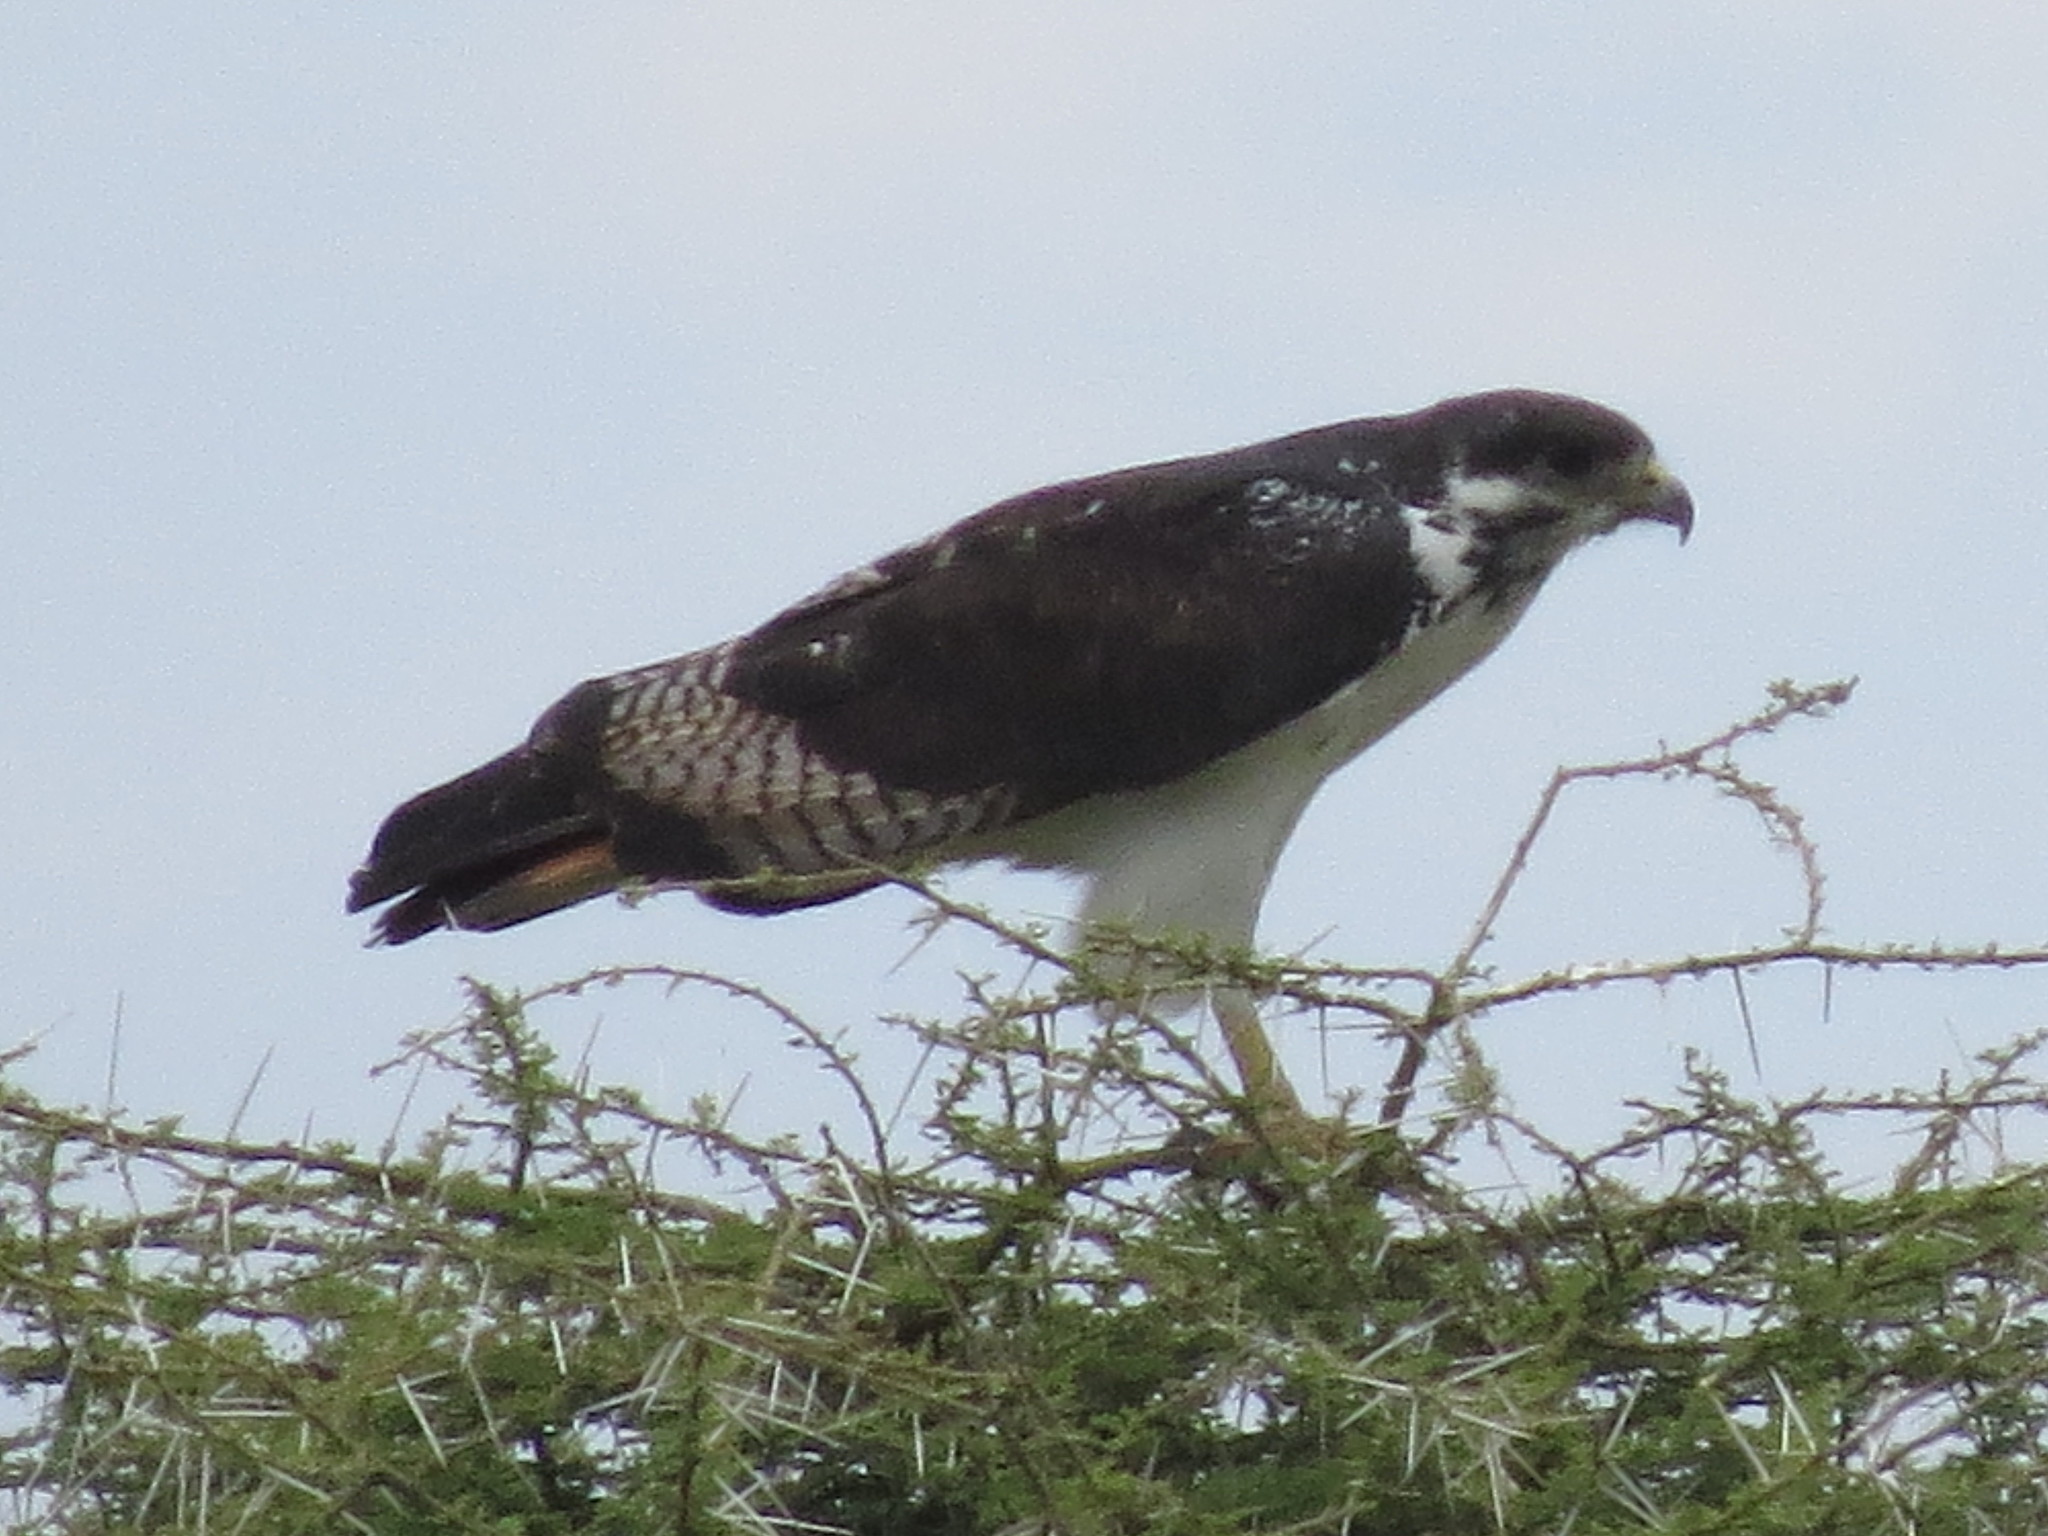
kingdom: Animalia
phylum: Chordata
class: Aves
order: Accipitriformes
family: Accipitridae
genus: Buteo
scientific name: Buteo augur
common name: Augur buzzard
